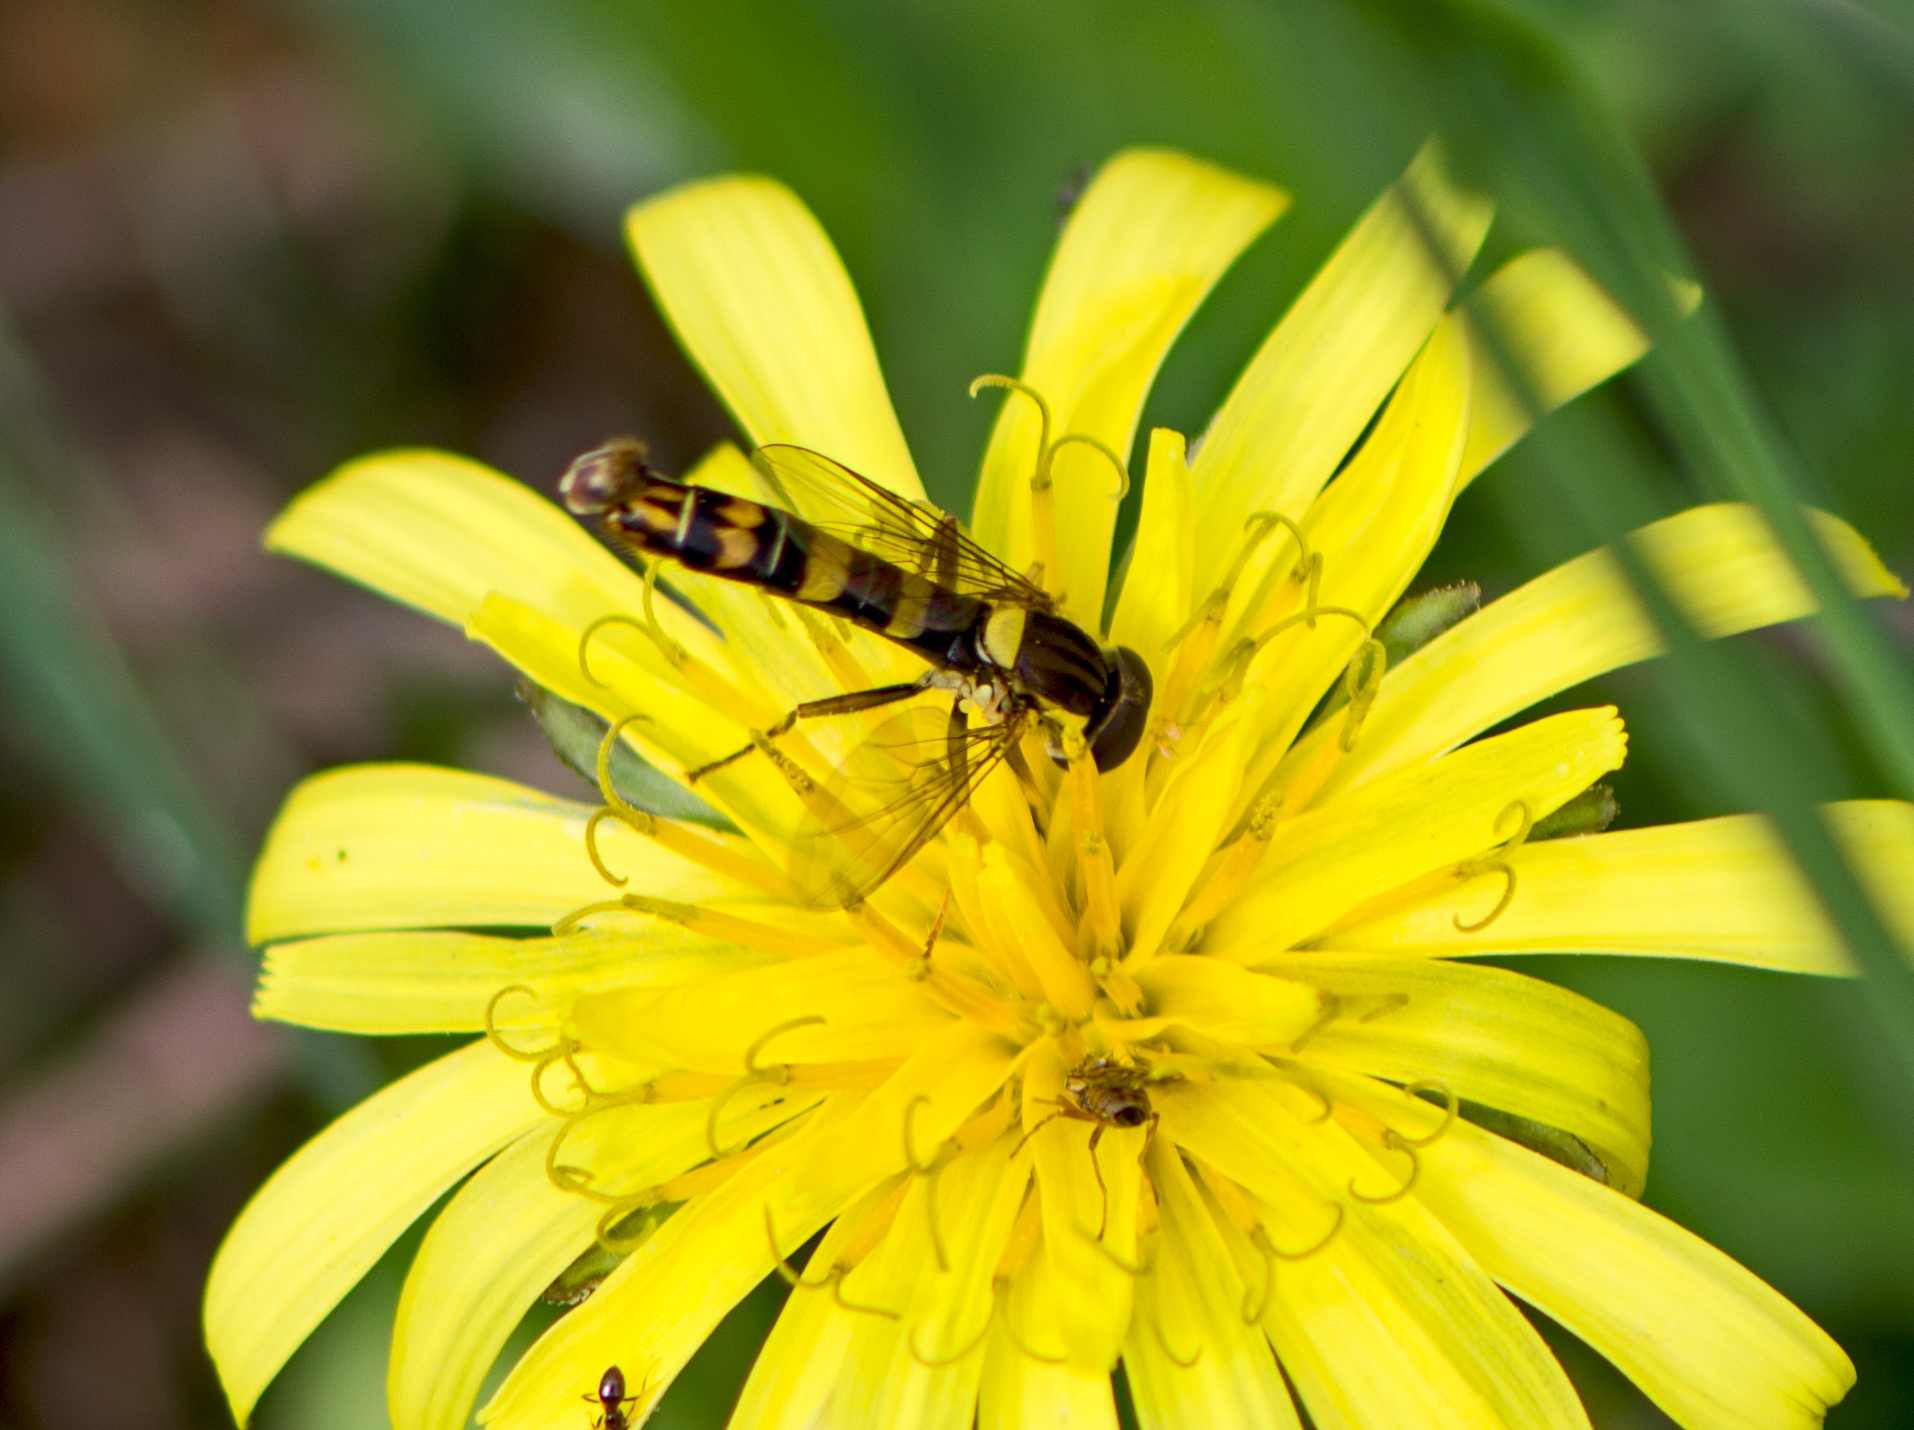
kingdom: Animalia
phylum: Arthropoda
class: Insecta
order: Diptera
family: Syrphidae
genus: Sphaerophoria
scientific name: Sphaerophoria scripta
